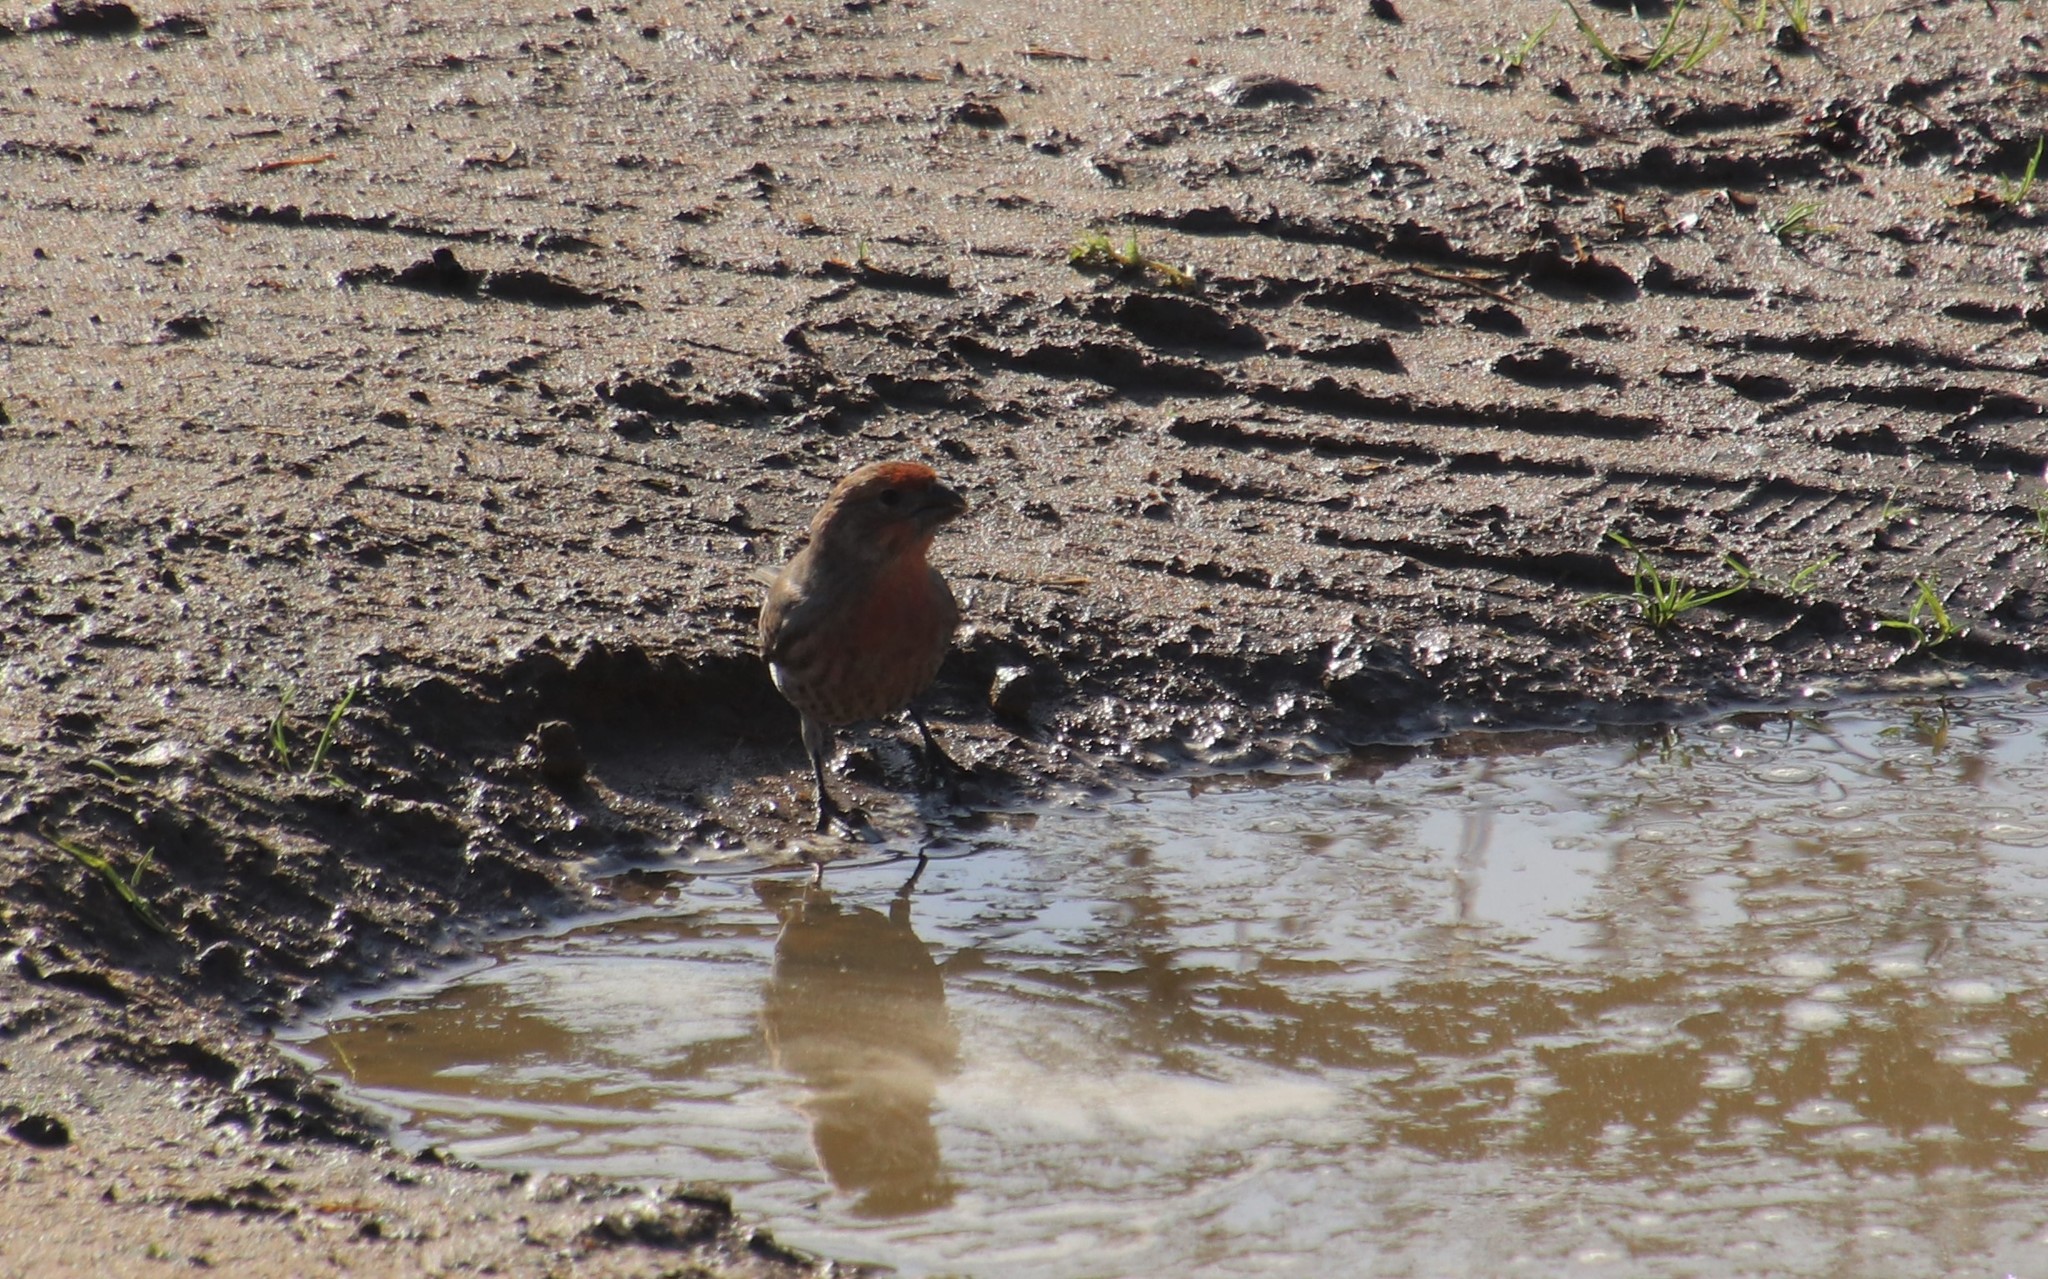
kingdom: Animalia
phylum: Chordata
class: Aves
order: Passeriformes
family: Fringillidae
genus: Haemorhous
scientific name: Haemorhous mexicanus
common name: House finch
